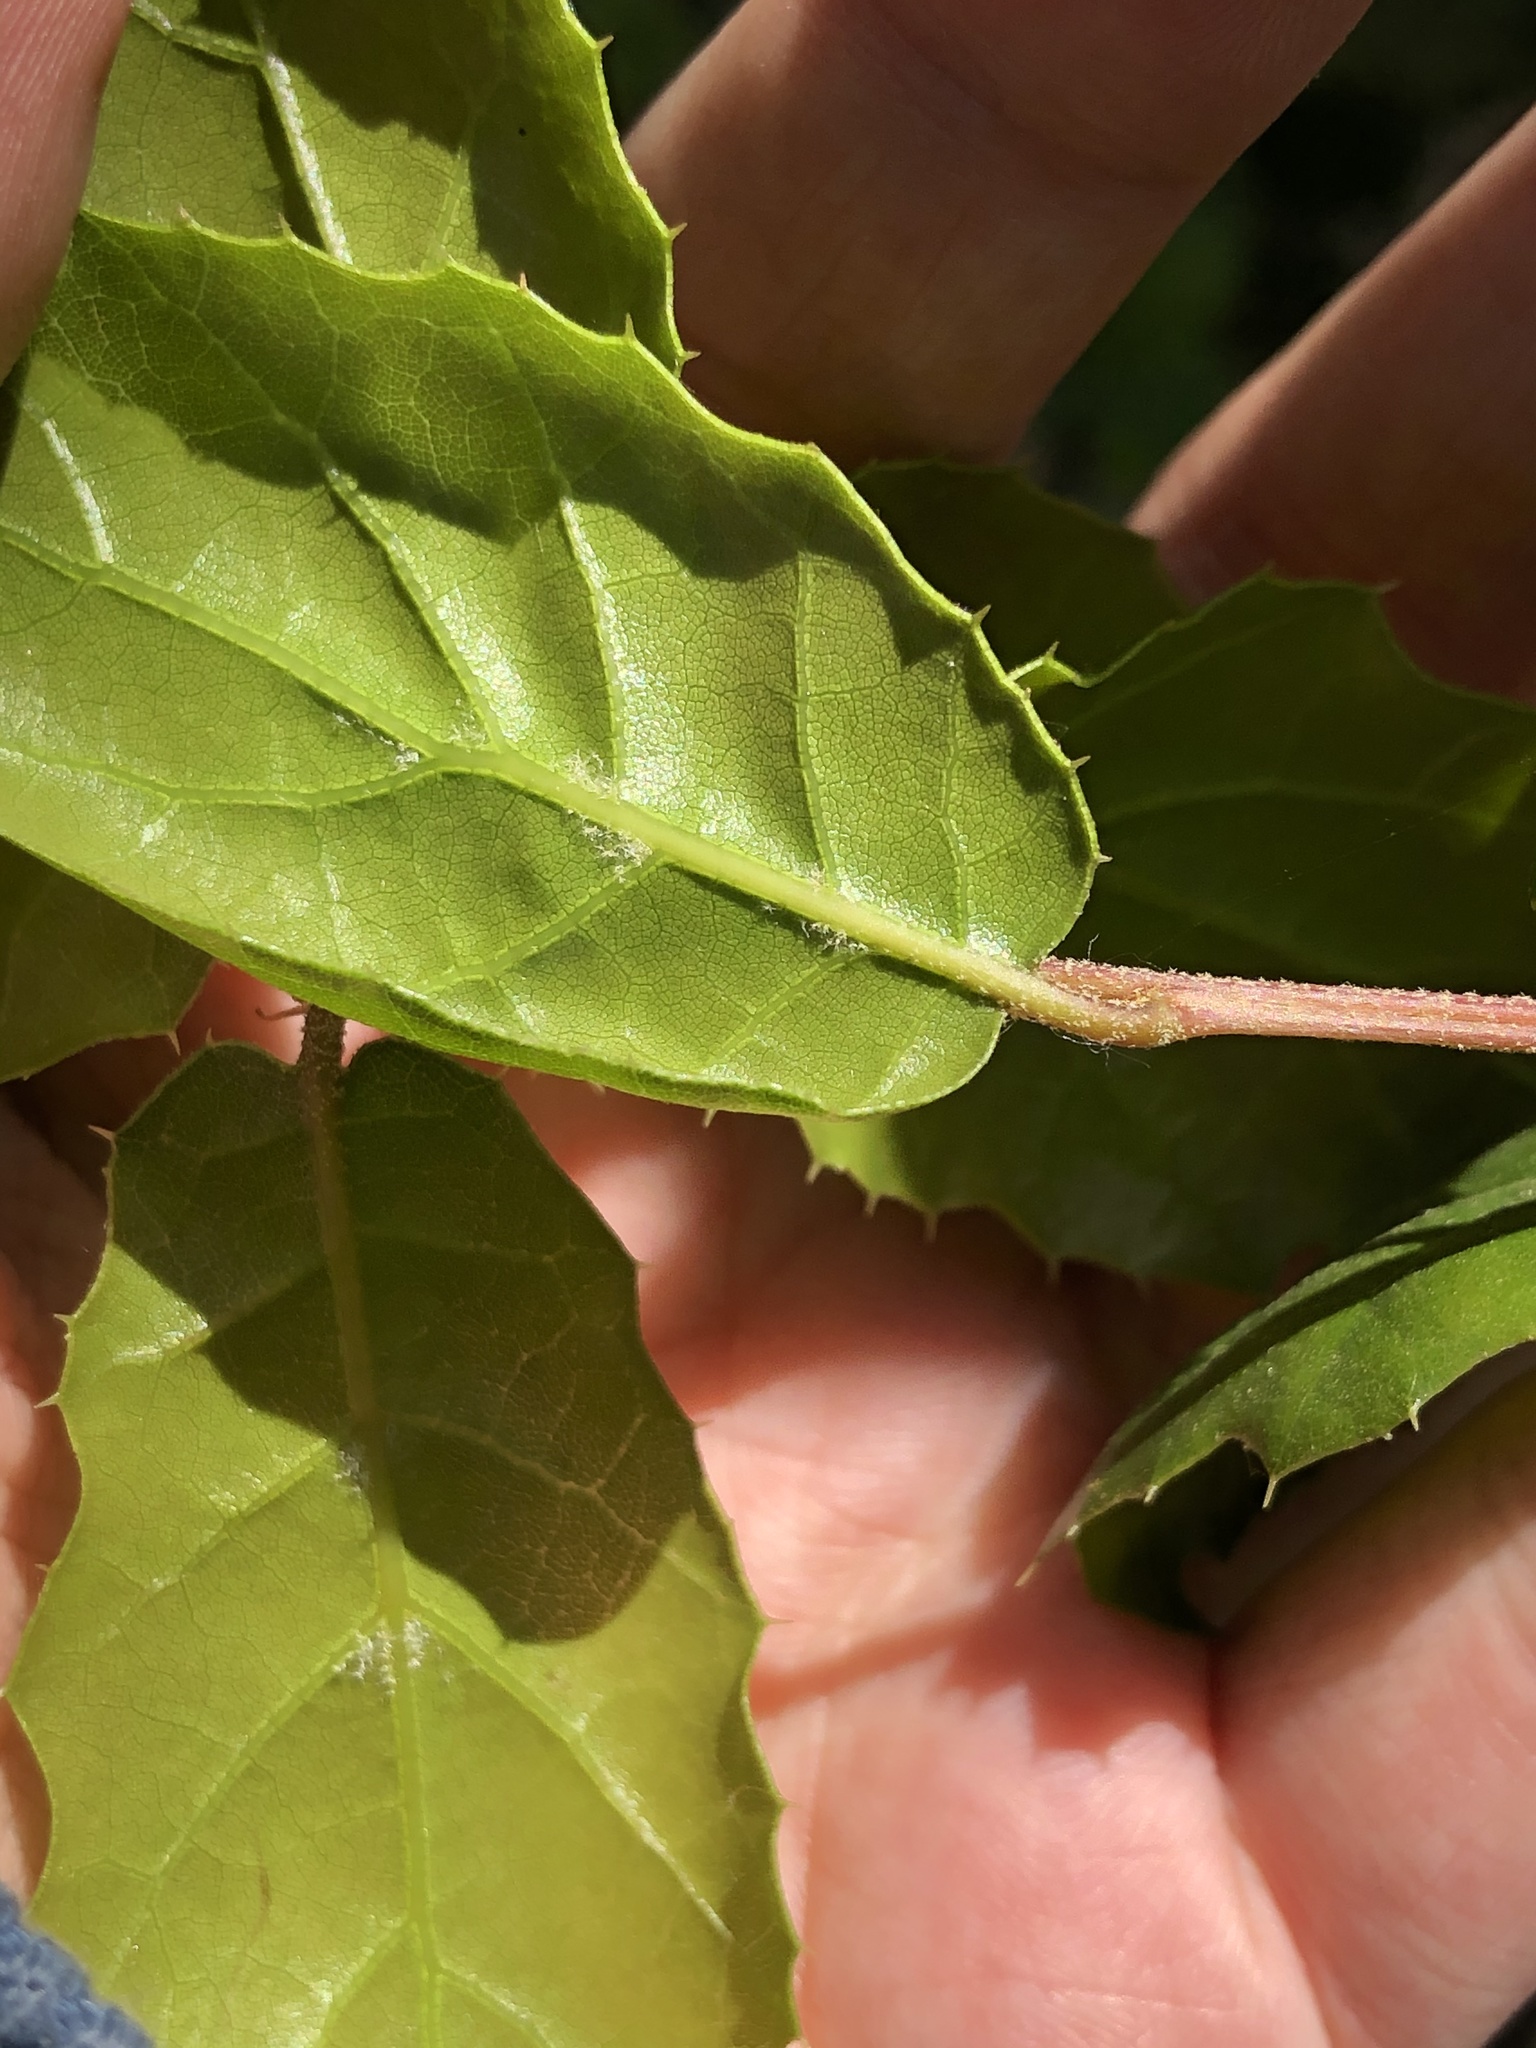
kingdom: Plantae
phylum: Tracheophyta
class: Magnoliopsida
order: Fagales
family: Fagaceae
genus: Quercus
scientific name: Quercus agrifolia
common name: California live oak
